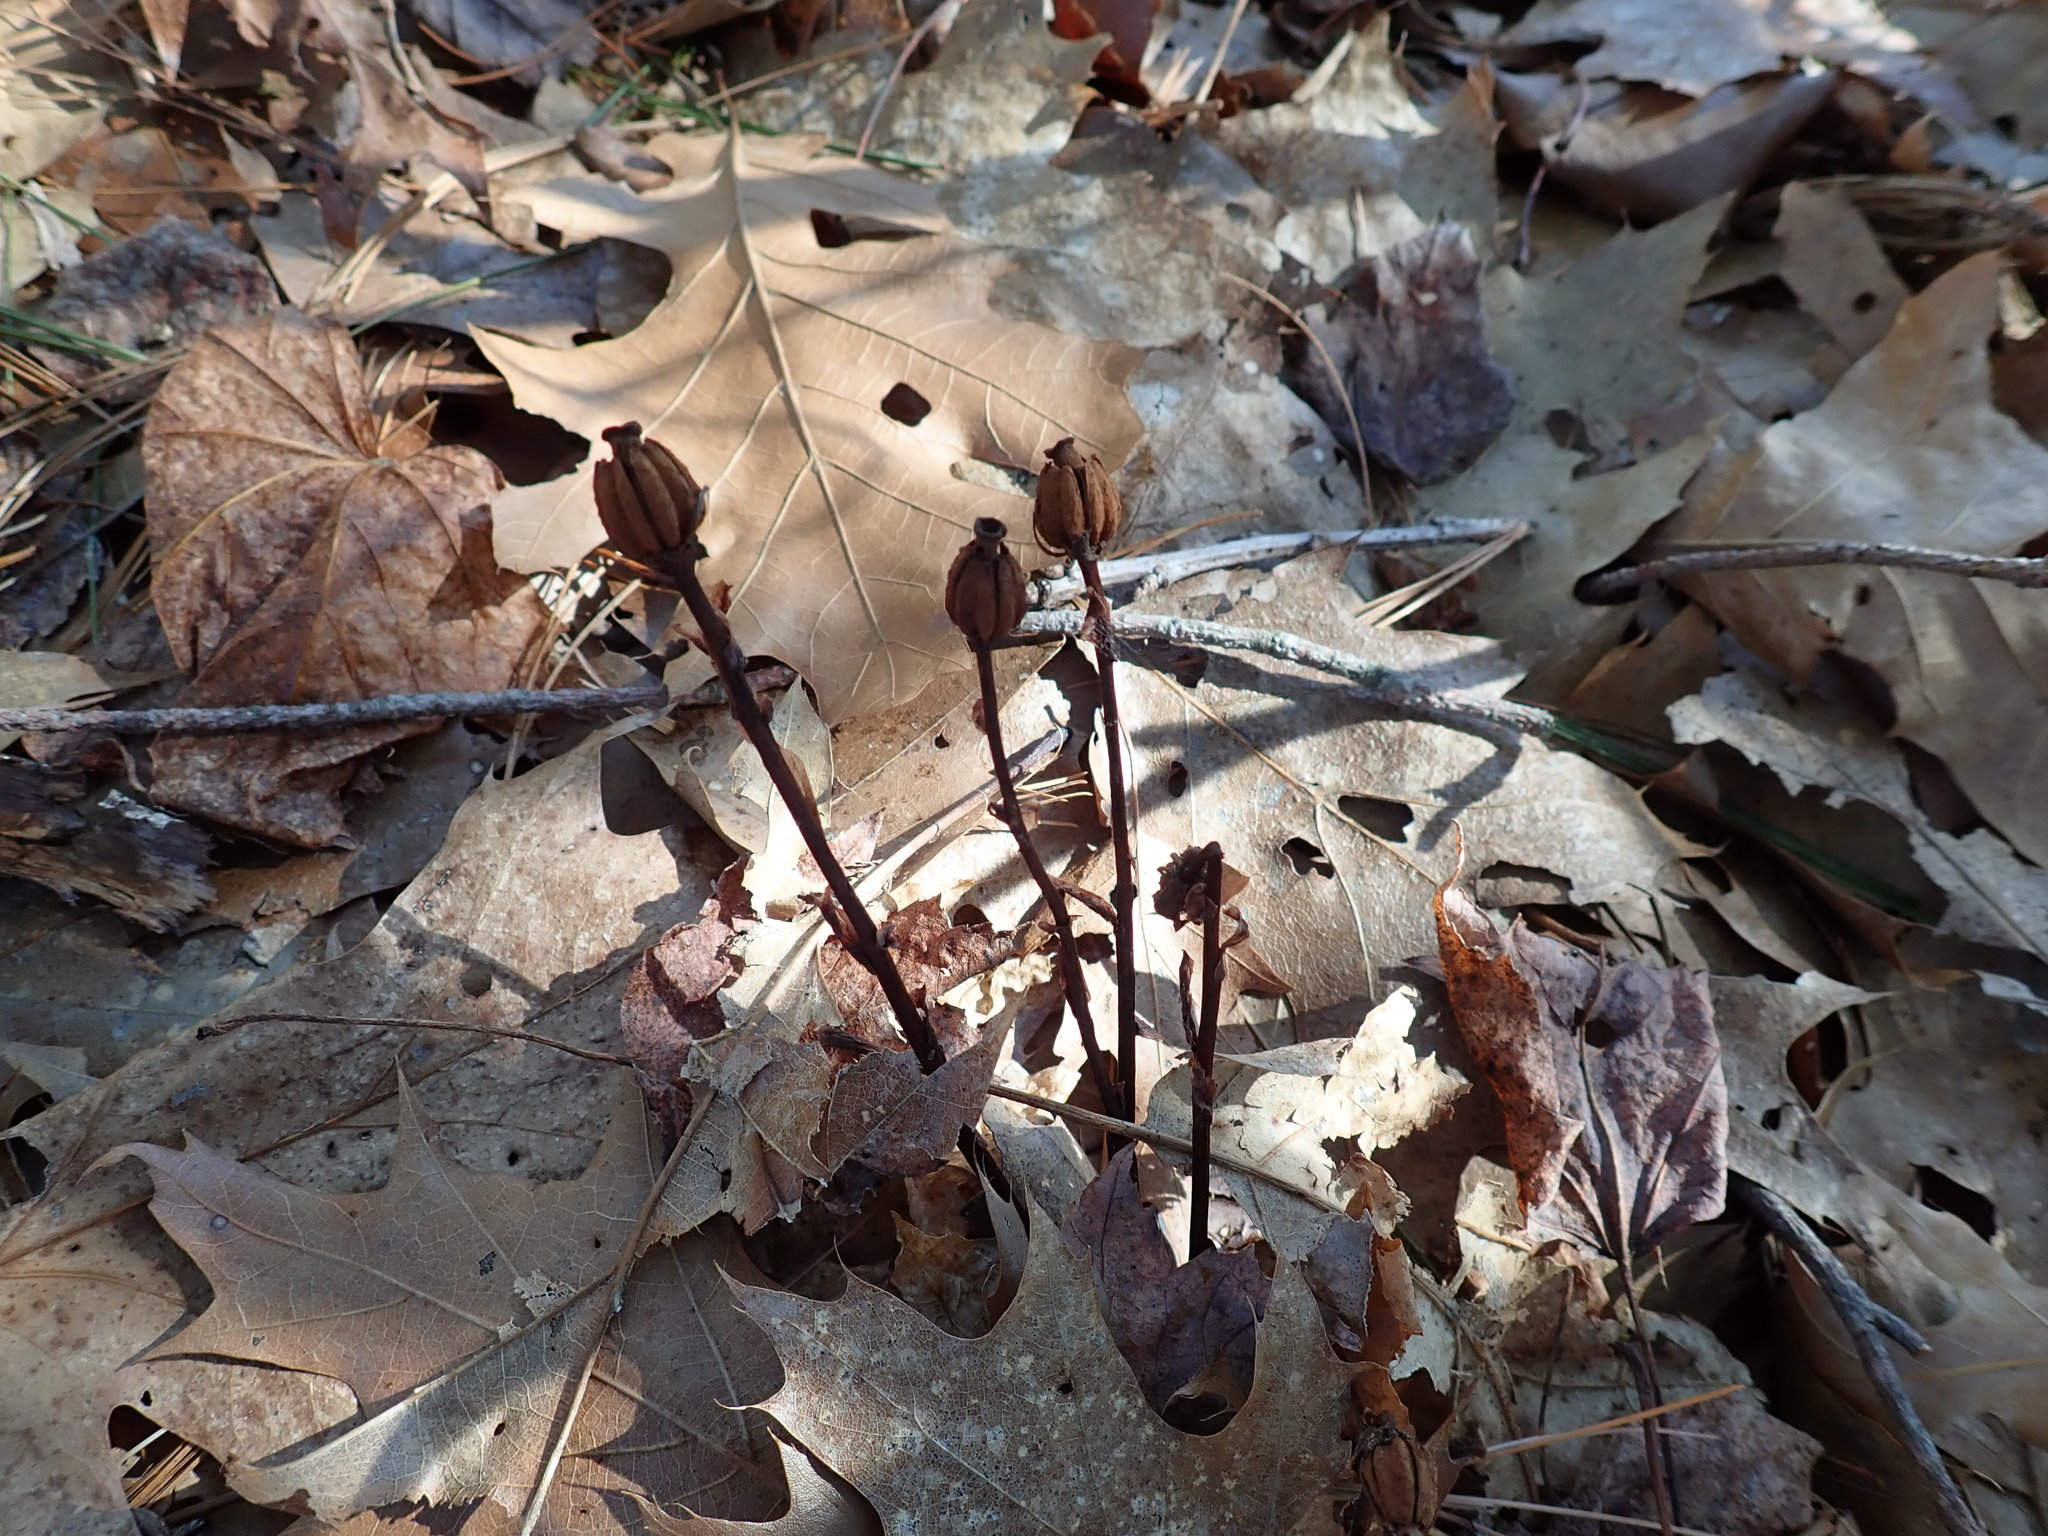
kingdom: Plantae
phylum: Tracheophyta
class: Magnoliopsida
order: Ericales
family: Ericaceae
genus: Monotropa
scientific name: Monotropa uniflora
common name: Convulsion root
